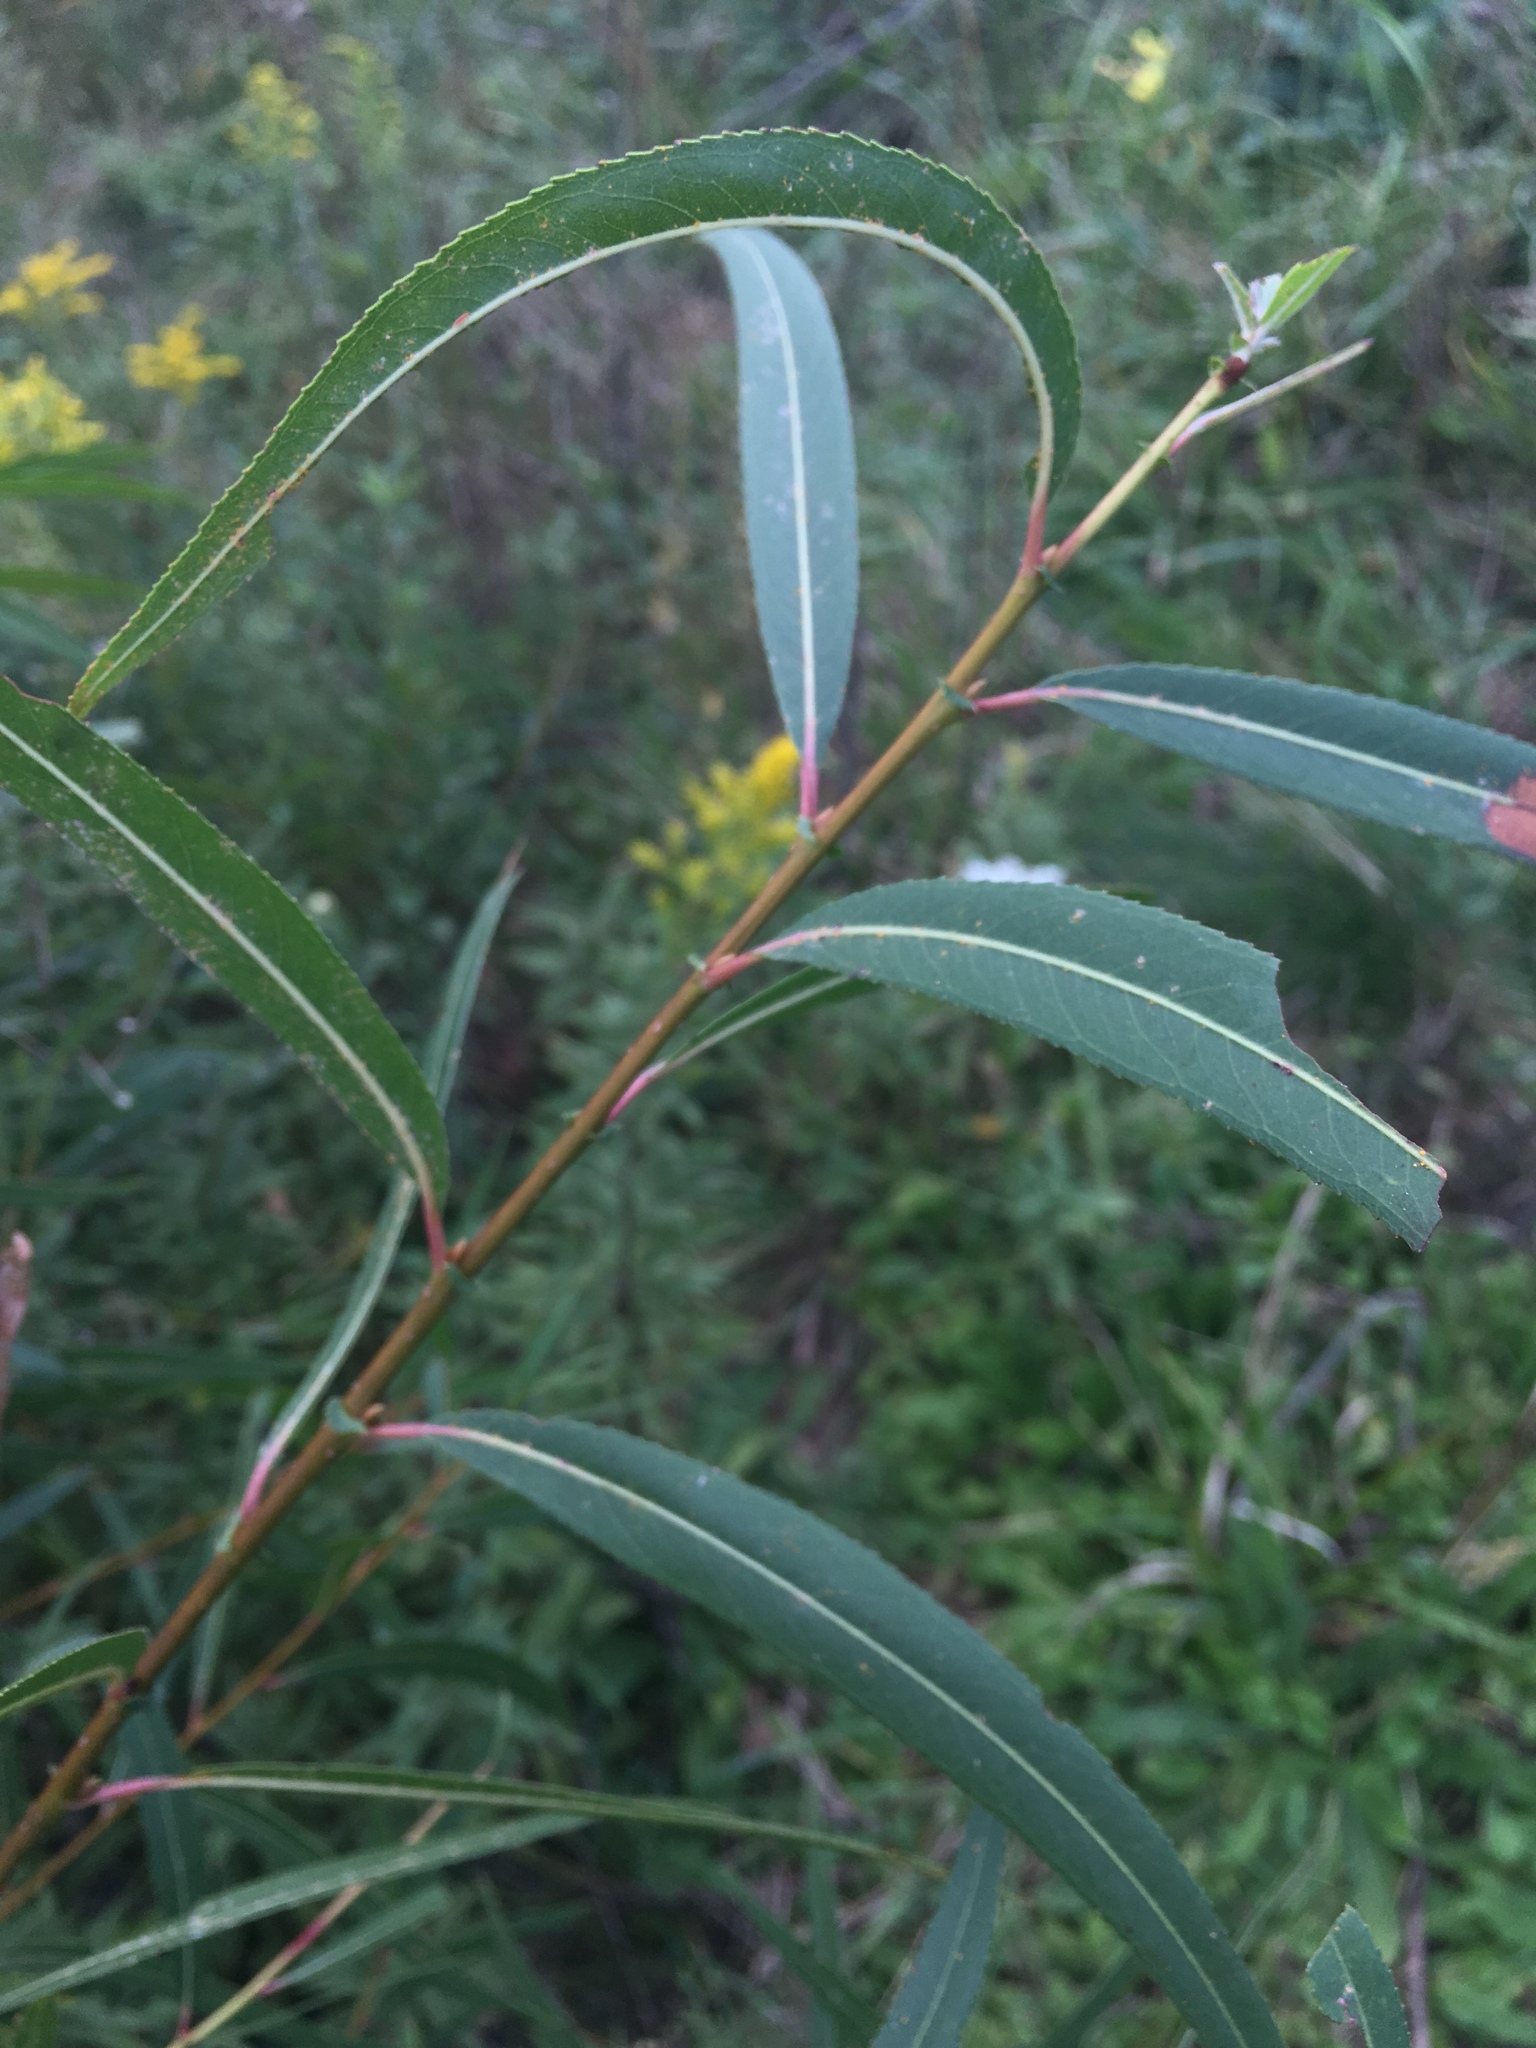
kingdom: Plantae
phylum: Tracheophyta
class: Magnoliopsida
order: Malpighiales
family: Salicaceae
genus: Salix
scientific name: Salix nigra
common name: Black willow
